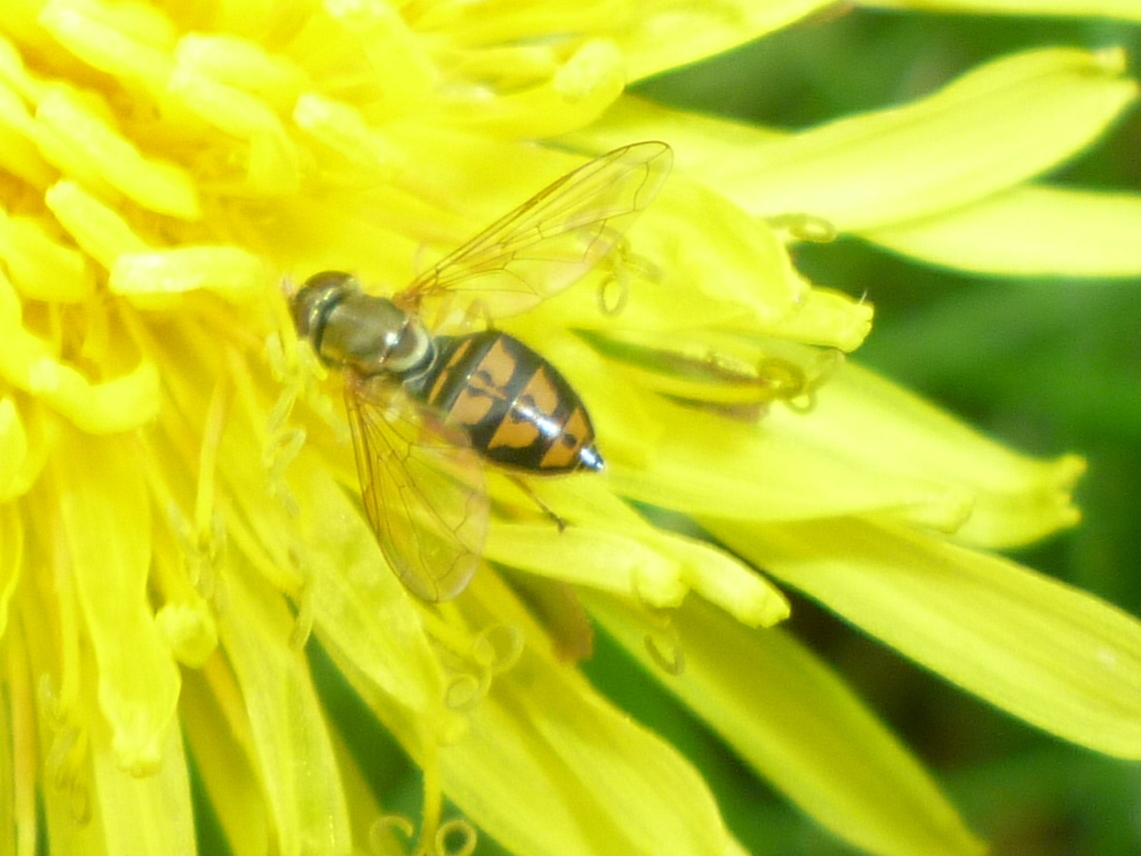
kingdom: Animalia
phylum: Arthropoda
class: Insecta
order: Diptera
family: Syrphidae
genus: Toxomerus
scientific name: Toxomerus marginatus
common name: Syrphid fly
